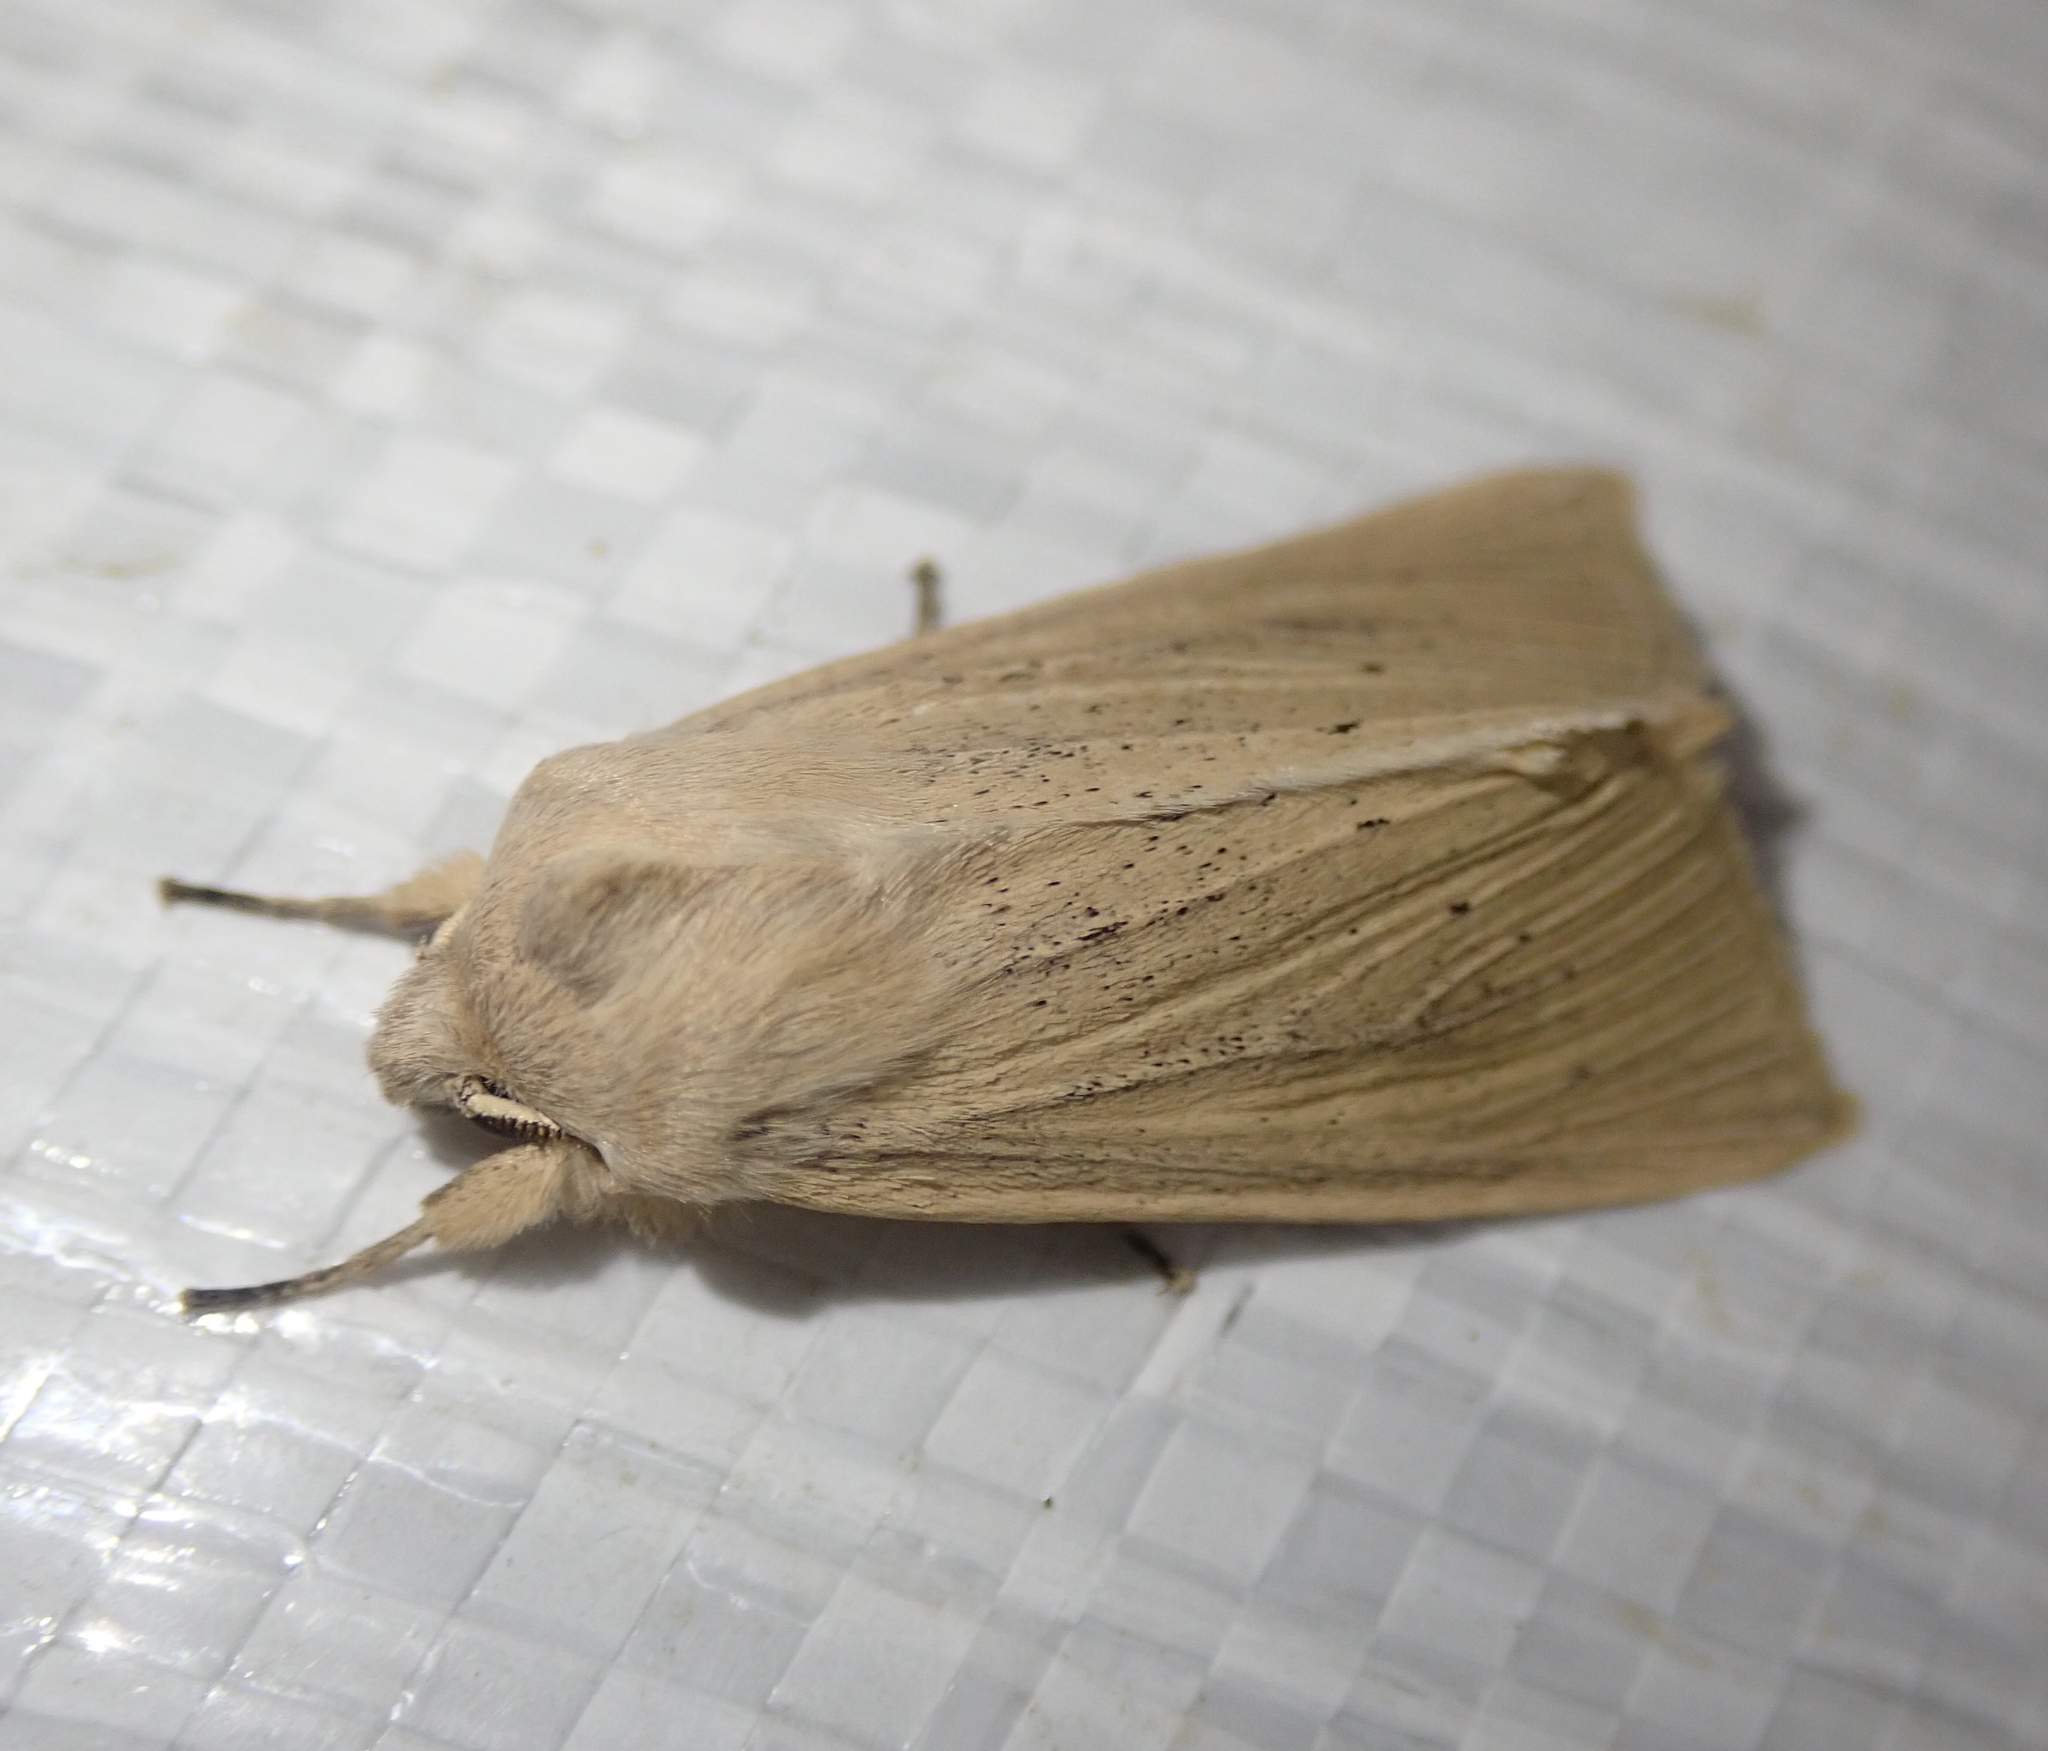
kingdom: Animalia
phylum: Arthropoda
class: Insecta
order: Lepidoptera
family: Noctuidae
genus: Rhizedra
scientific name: Rhizedra lutosa
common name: Large wainscot
